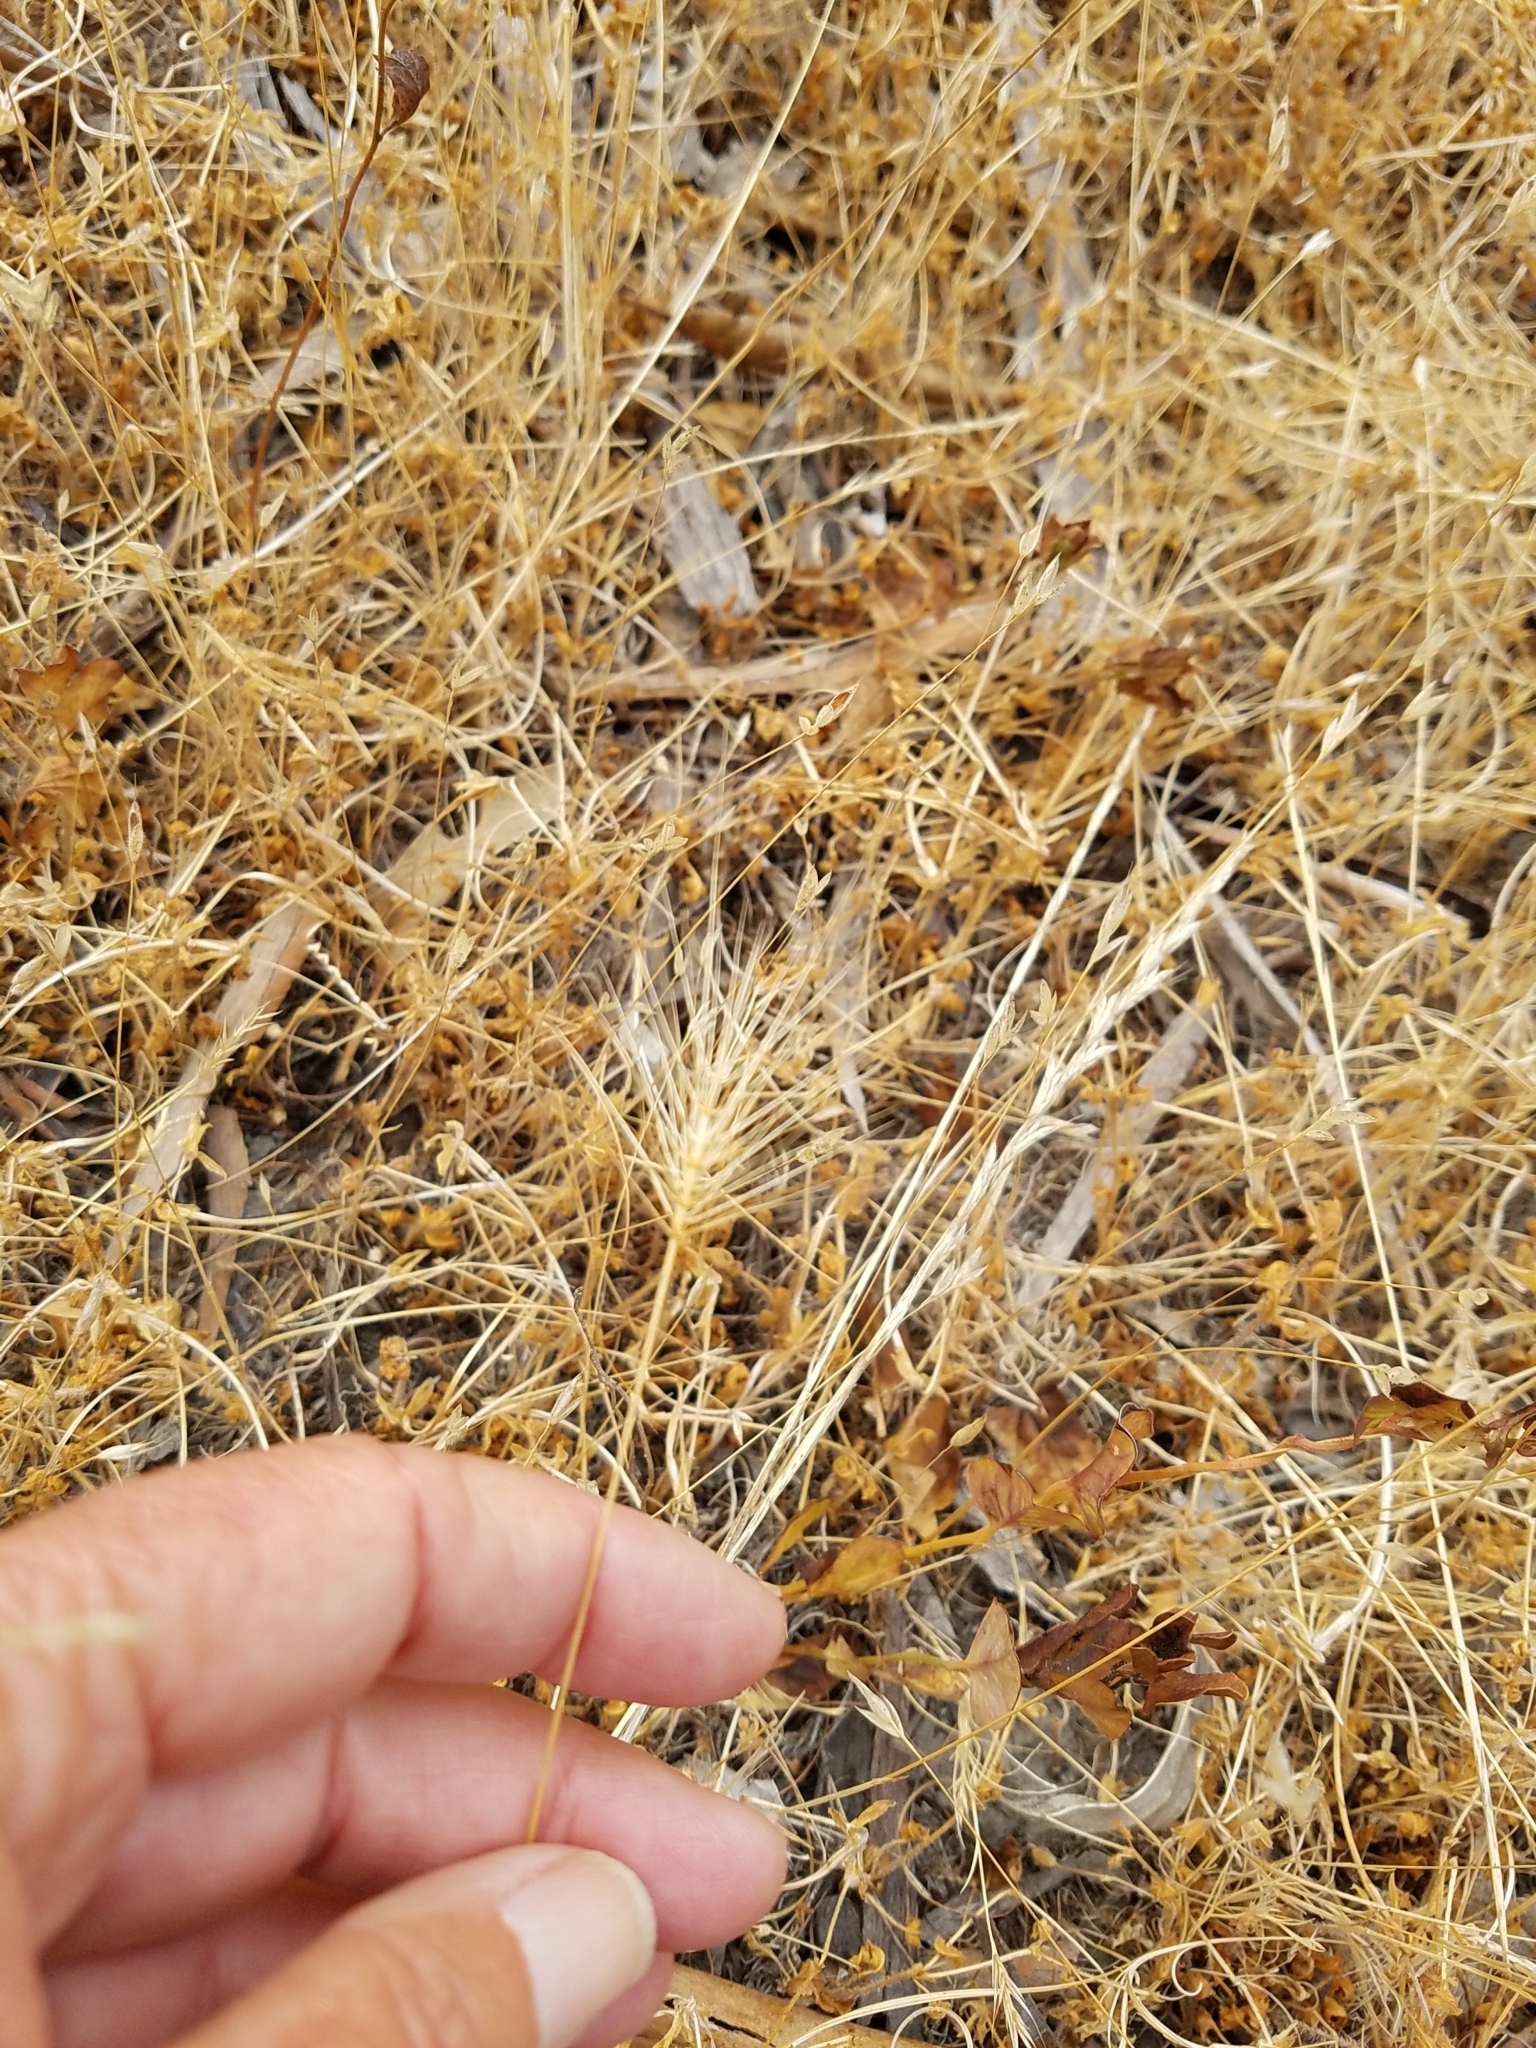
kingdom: Plantae
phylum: Tracheophyta
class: Liliopsida
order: Poales
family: Poaceae
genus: Taeniatherum
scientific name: Taeniatherum caput-medusae
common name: Medusahead
